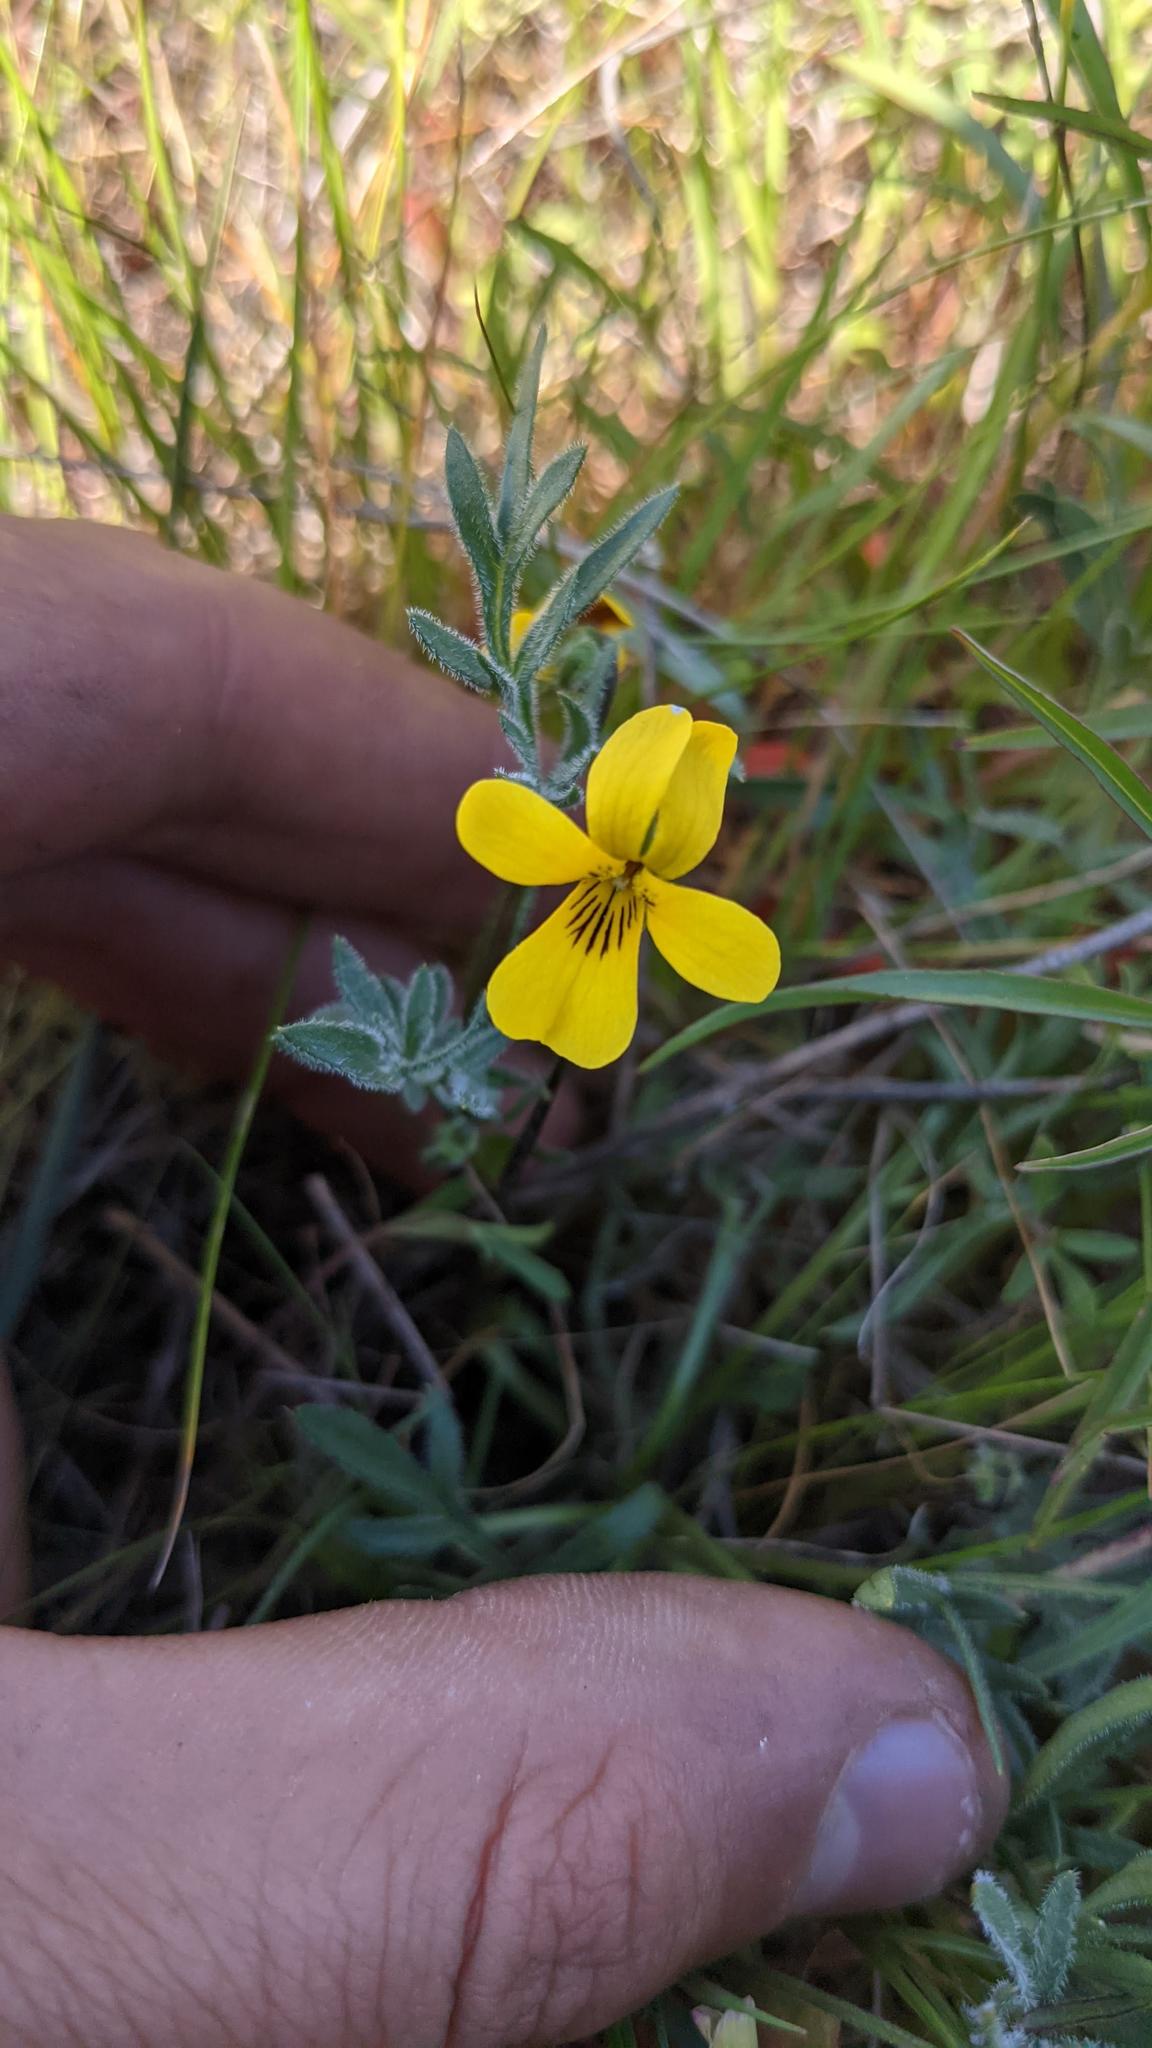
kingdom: Plantae
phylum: Tracheophyta
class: Magnoliopsida
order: Malpighiales
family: Violaceae
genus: Viola
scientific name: Viola douglasii
